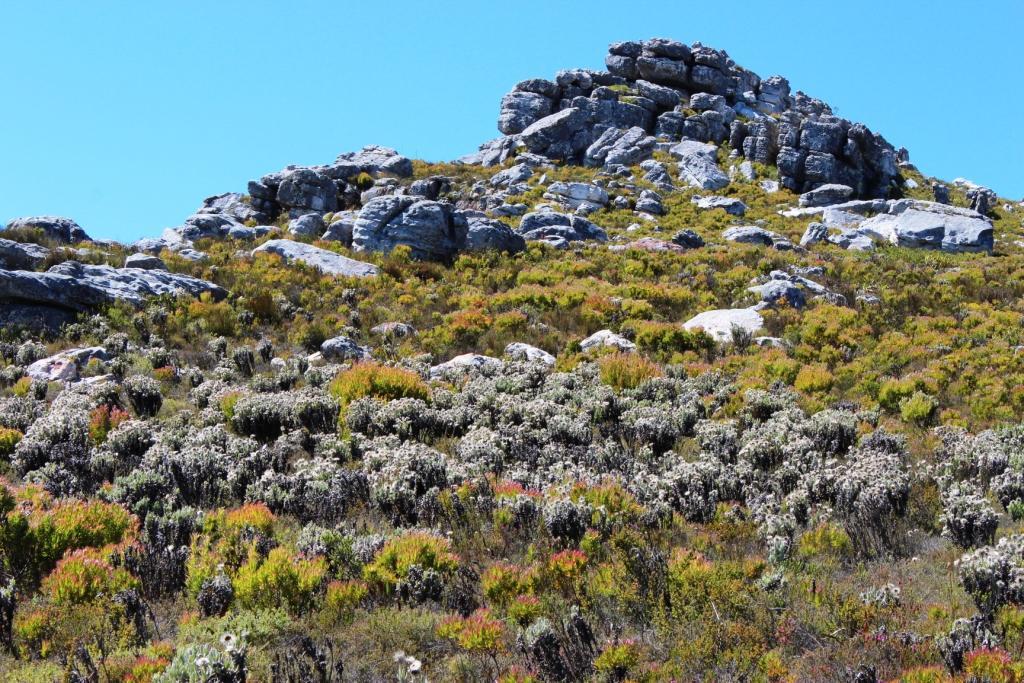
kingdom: Plantae
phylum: Tracheophyta
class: Magnoliopsida
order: Asterales
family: Asteraceae
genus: Syncarpha
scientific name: Syncarpha vestita
